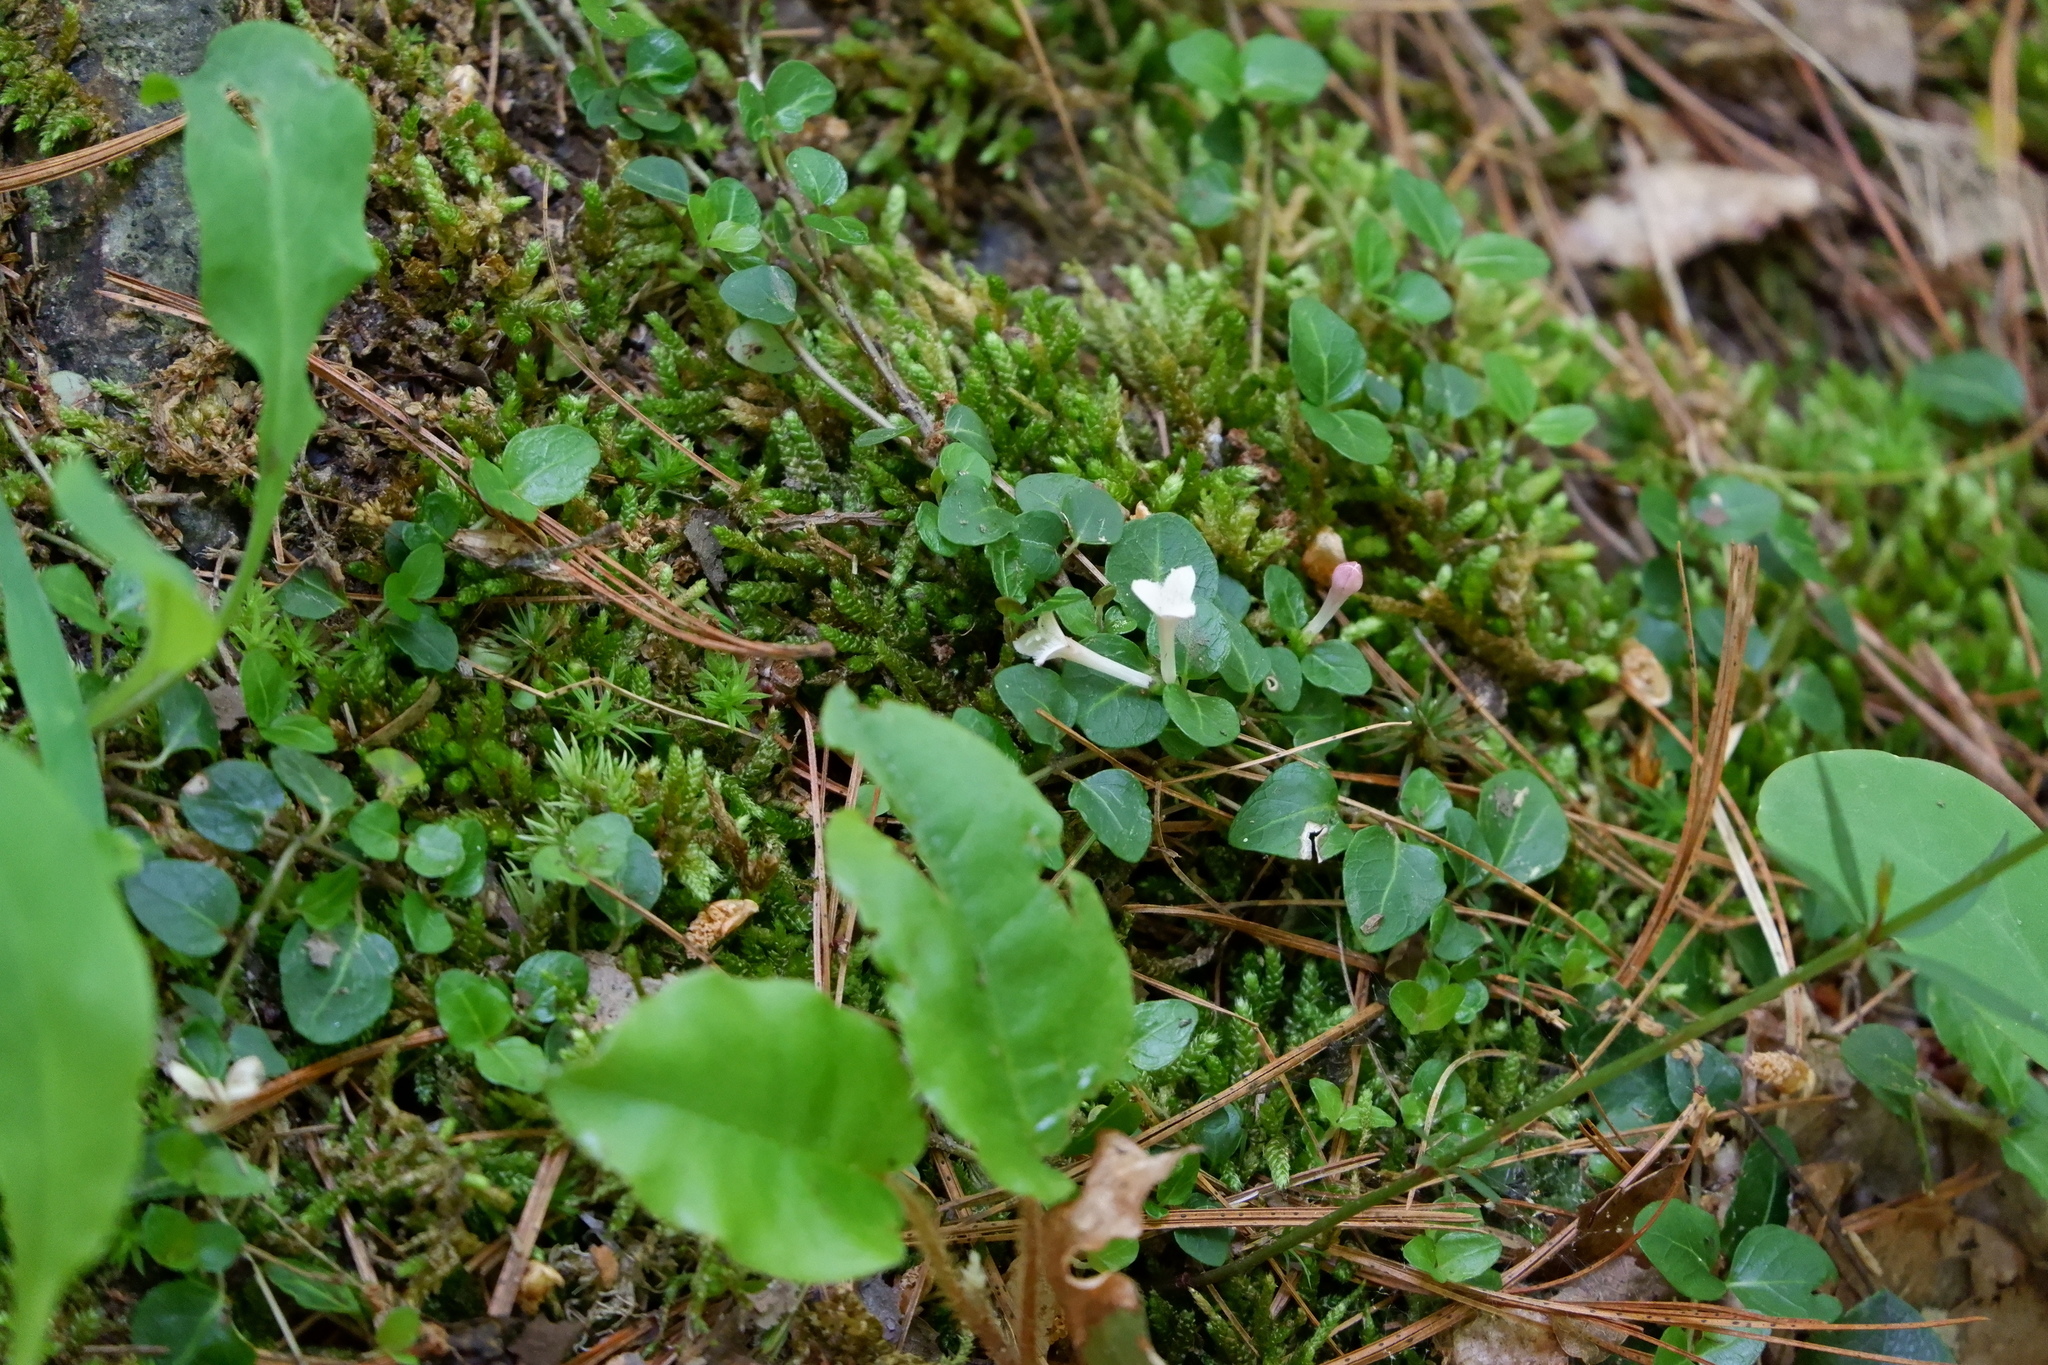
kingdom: Plantae
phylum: Tracheophyta
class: Magnoliopsida
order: Gentianales
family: Rubiaceae
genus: Mitchella
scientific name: Mitchella repens
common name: Partridge-berry
